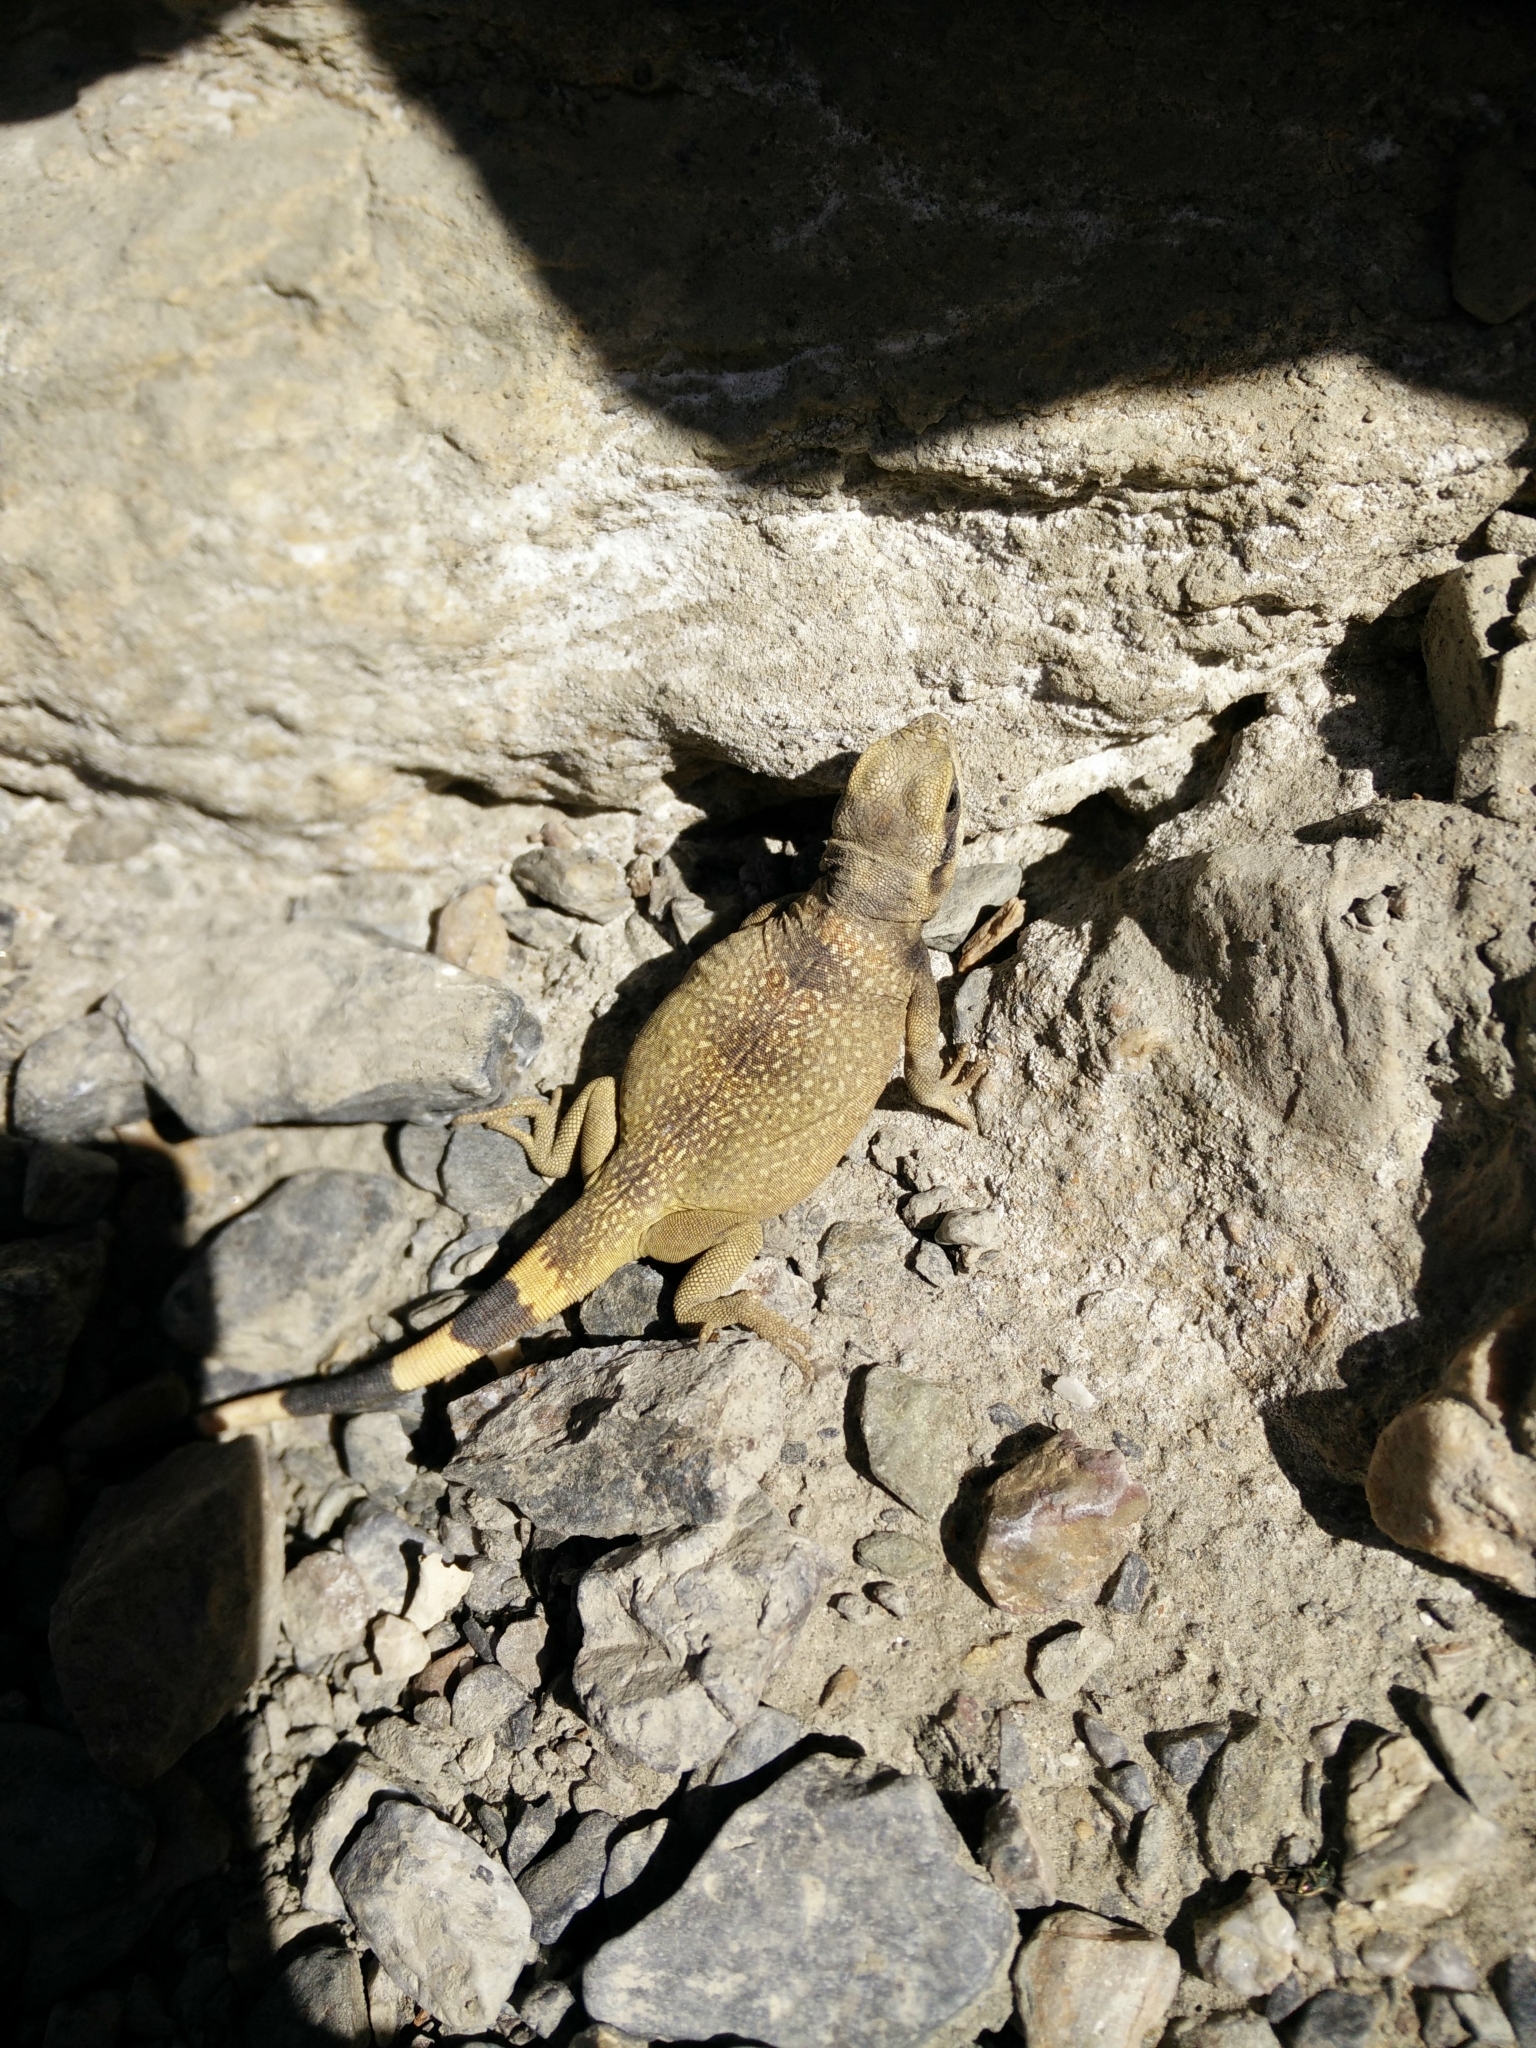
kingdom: Animalia
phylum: Chordata
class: Squamata
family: Iguanidae
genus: Sauromalus
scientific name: Sauromalus ater
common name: Northern chuckwalla
